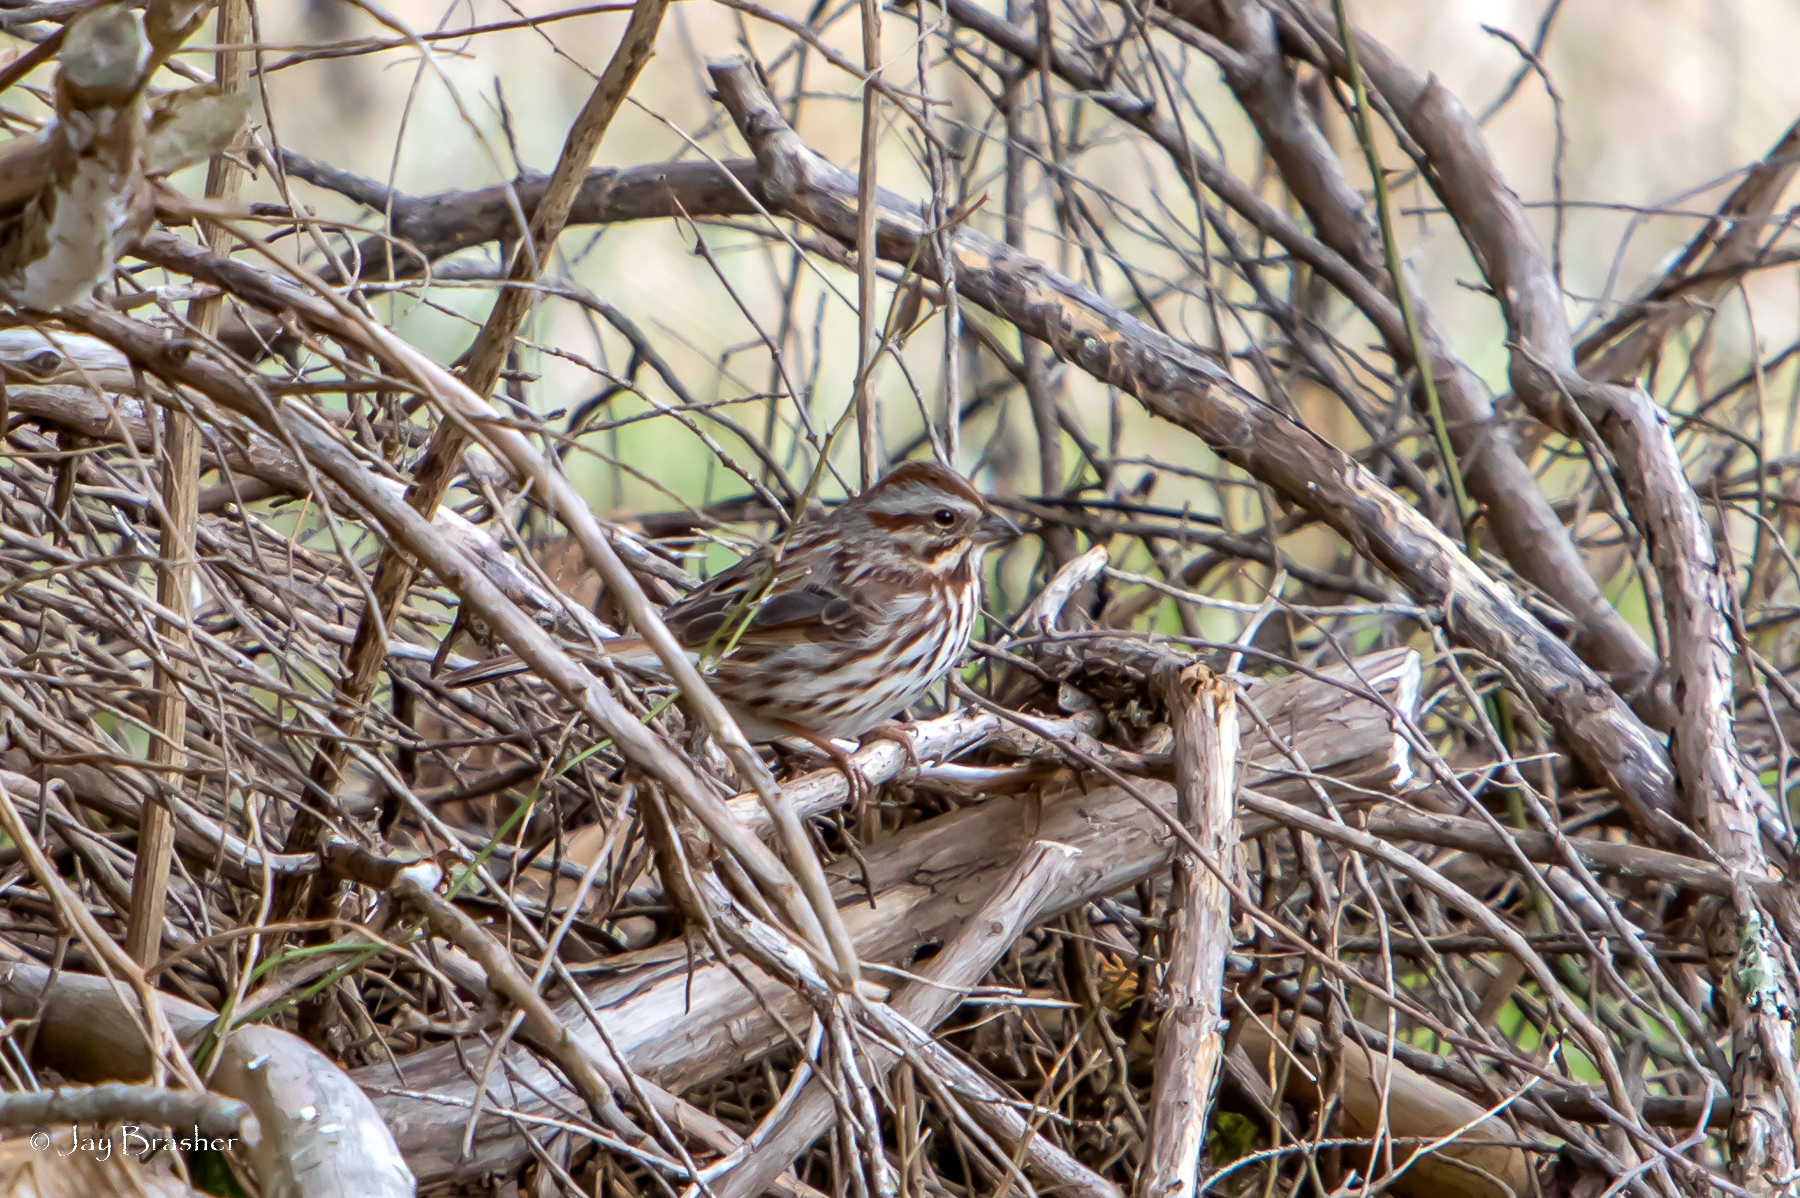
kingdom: Animalia
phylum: Chordata
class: Aves
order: Passeriformes
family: Passerellidae
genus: Melospiza
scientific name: Melospiza melodia
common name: Song sparrow
